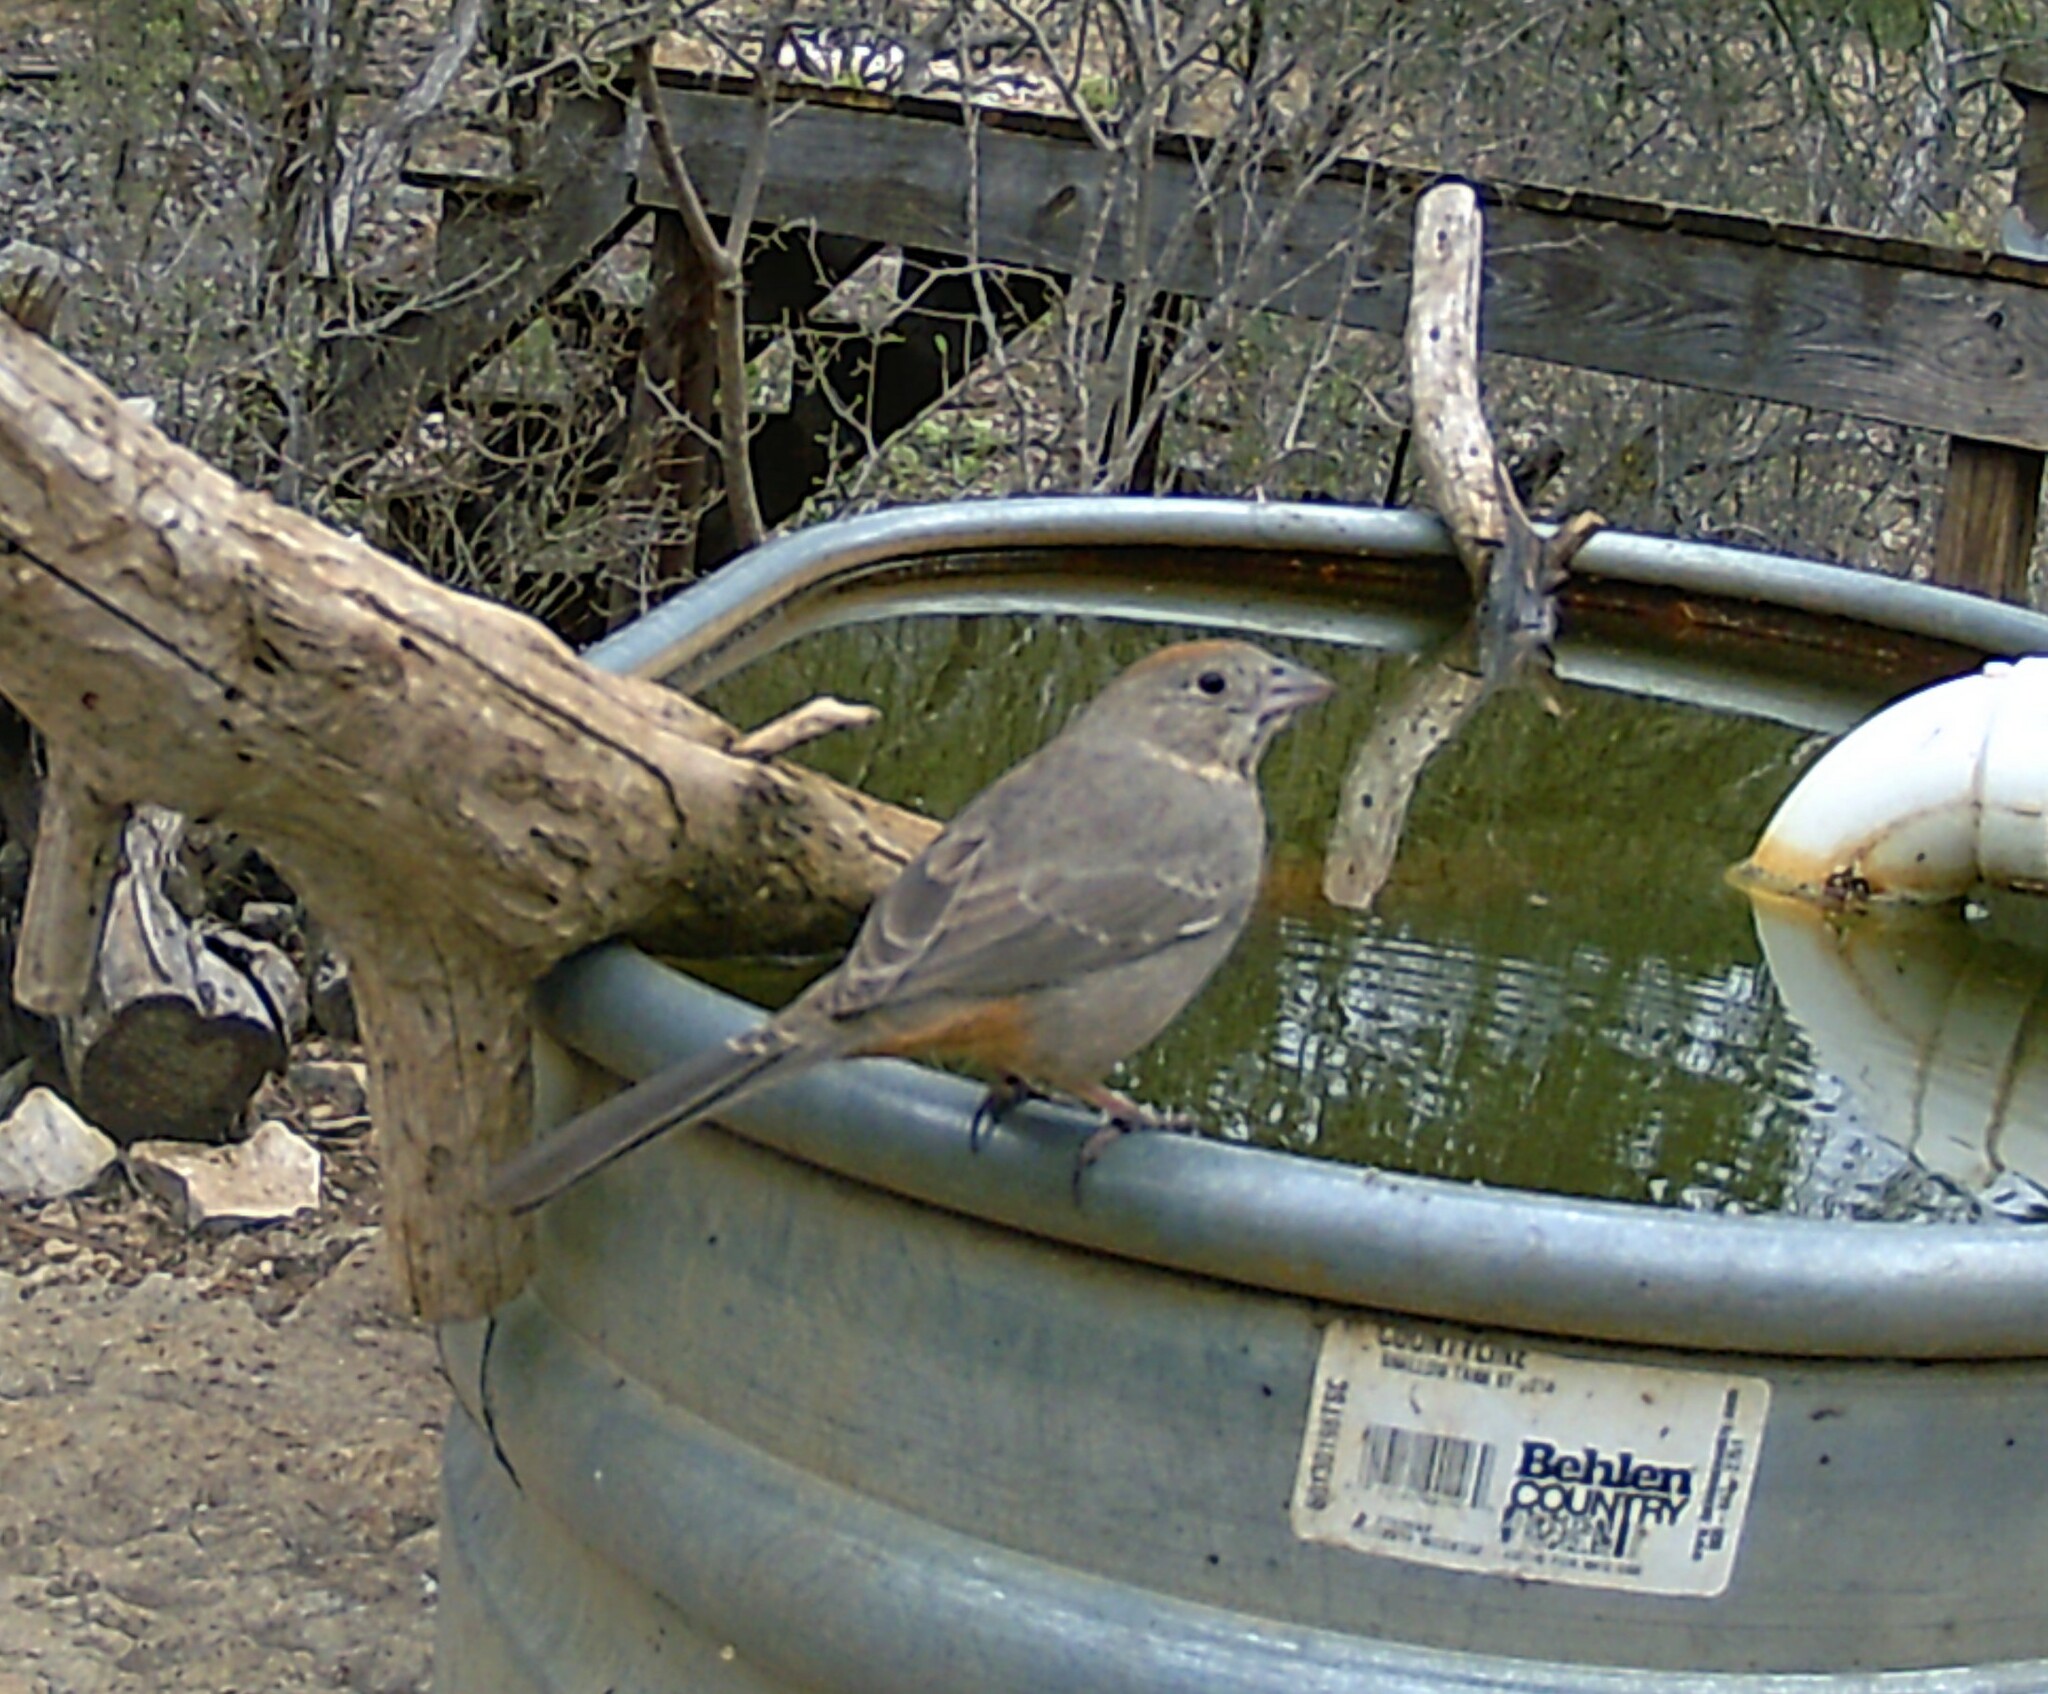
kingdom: Animalia
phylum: Chordata
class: Aves
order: Passeriformes
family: Passerellidae
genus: Melozone
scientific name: Melozone fusca
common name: Canyon towhee
